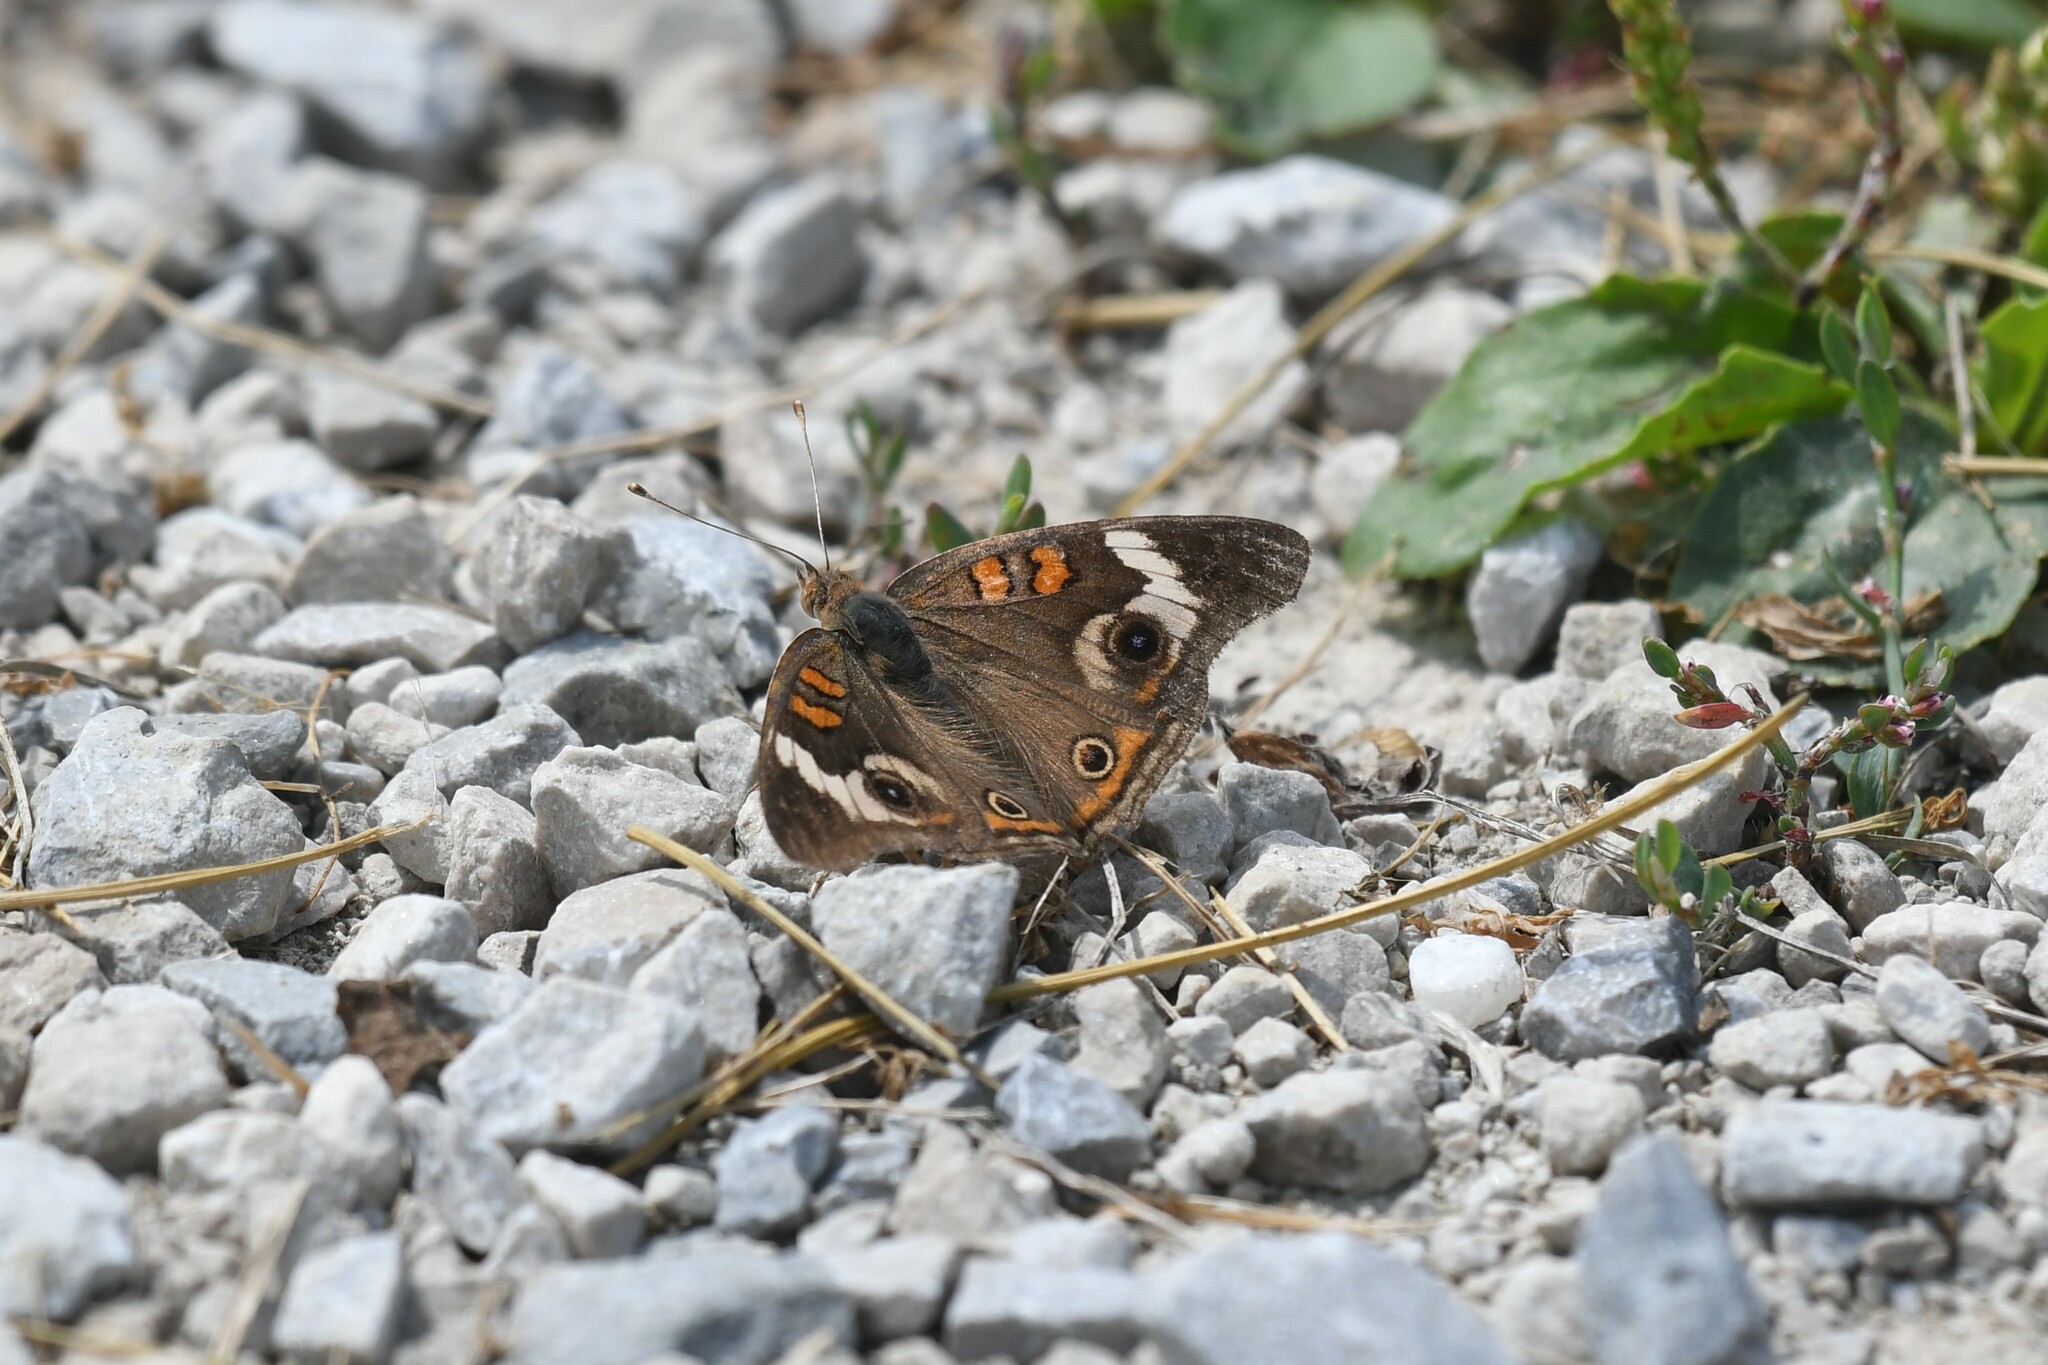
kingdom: Animalia
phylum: Arthropoda
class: Insecta
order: Lepidoptera
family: Nymphalidae
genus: Junonia
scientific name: Junonia coenia
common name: Common buckeye
